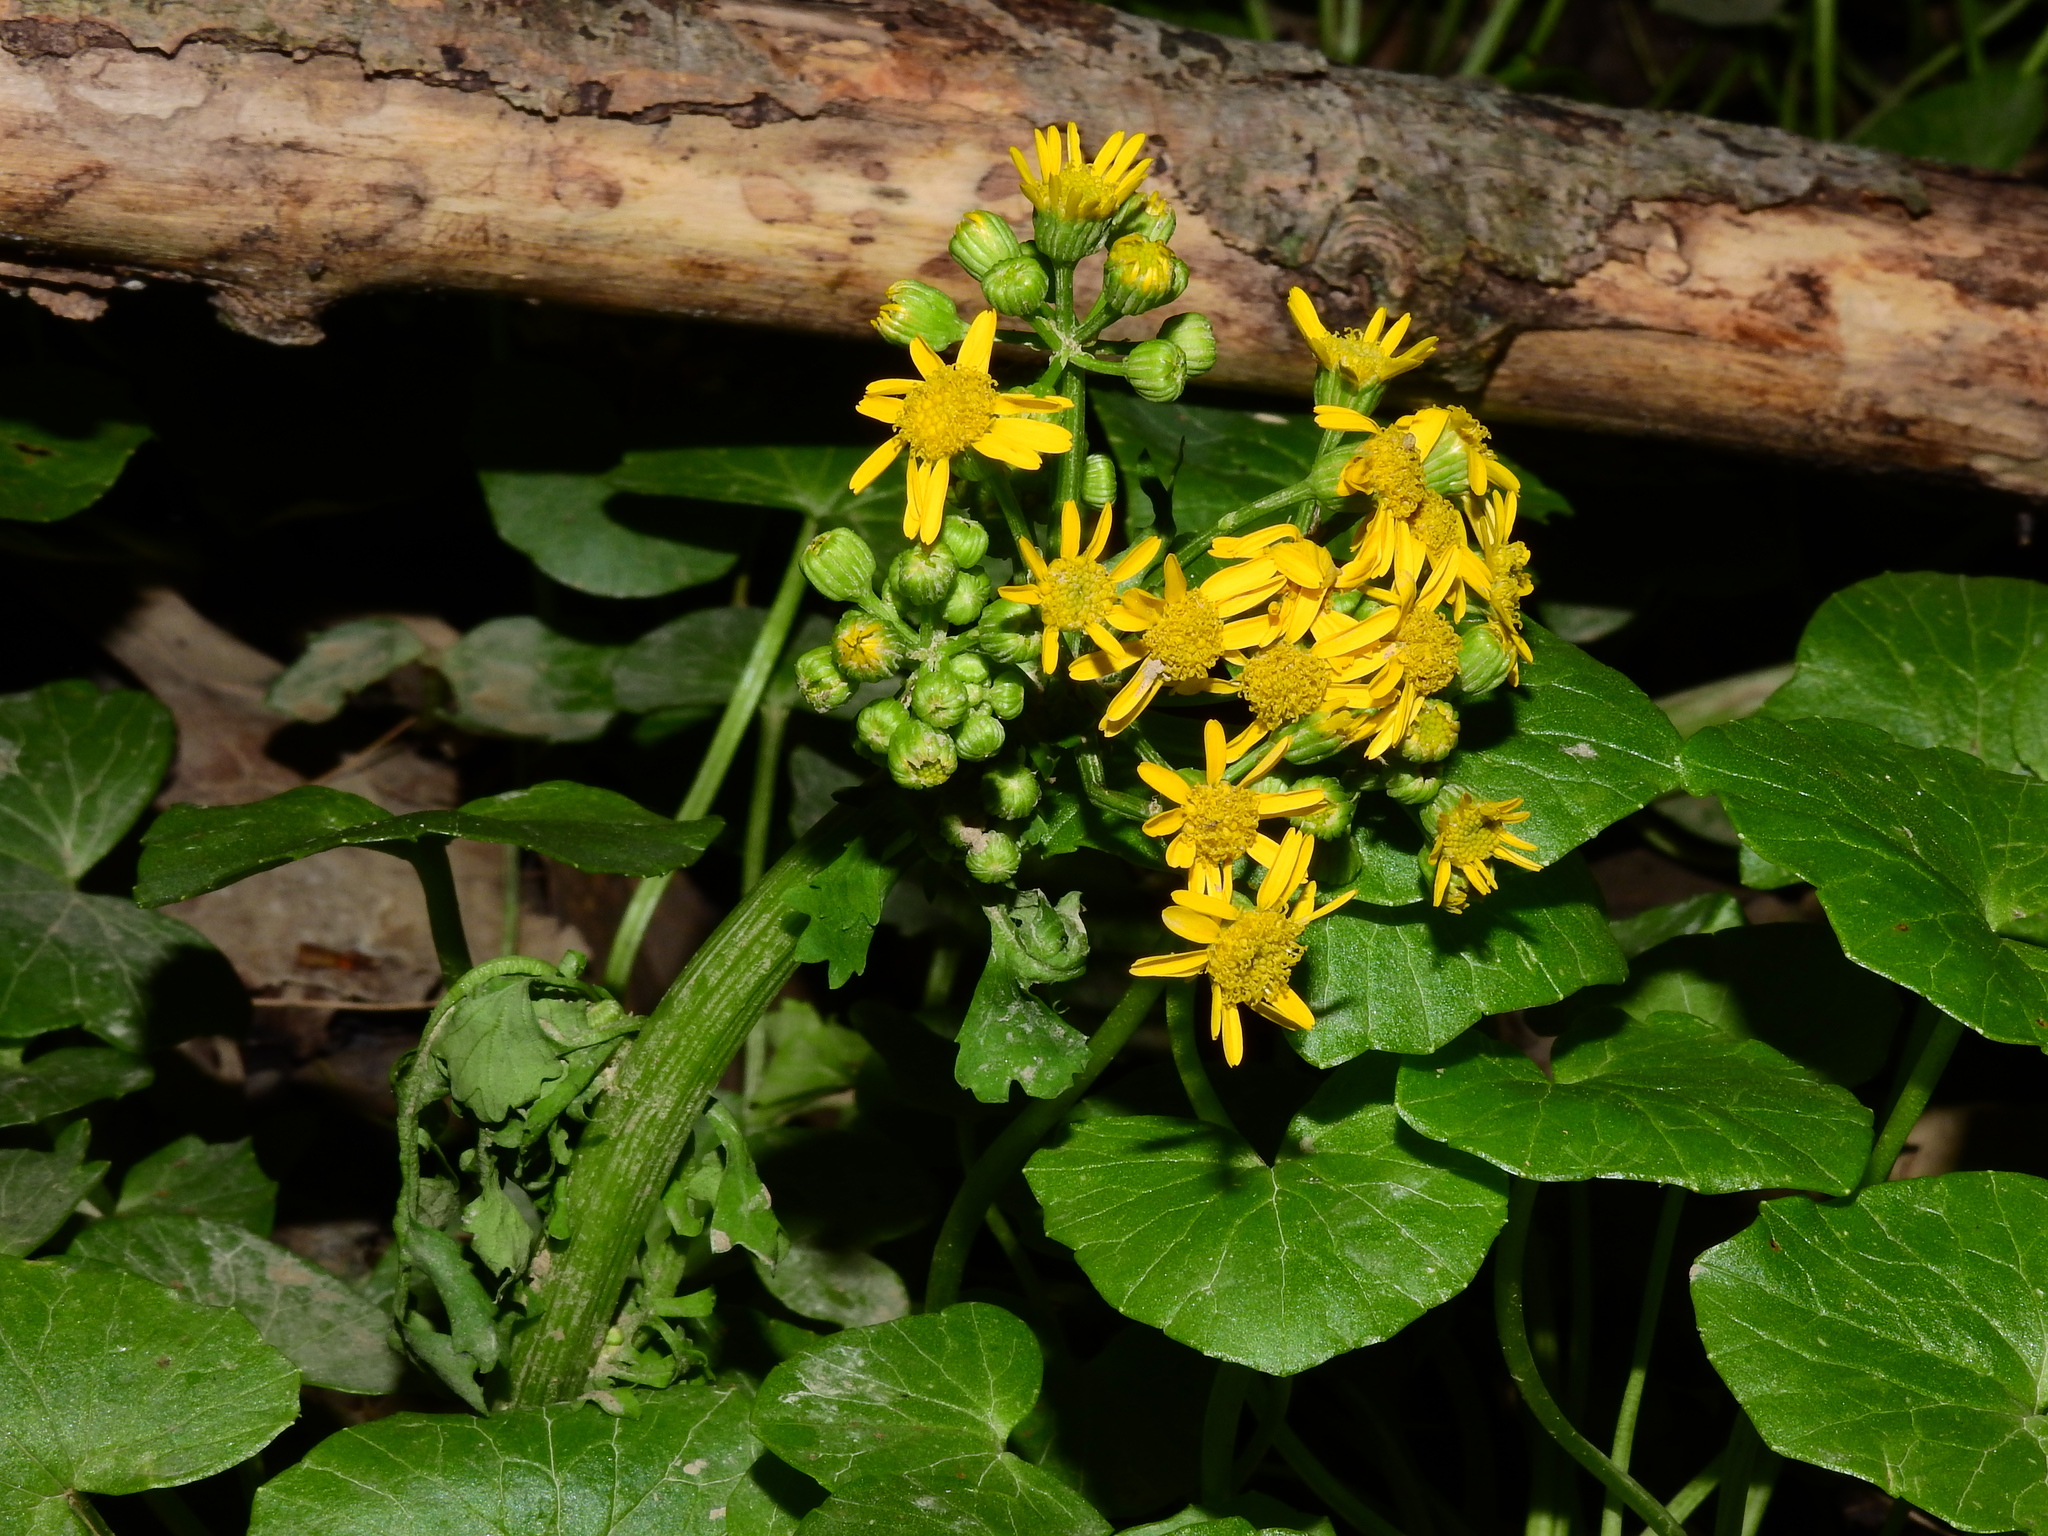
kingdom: Plantae
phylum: Tracheophyta
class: Magnoliopsida
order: Asterales
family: Asteraceae
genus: Packera
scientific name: Packera glabella
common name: Butterweed
